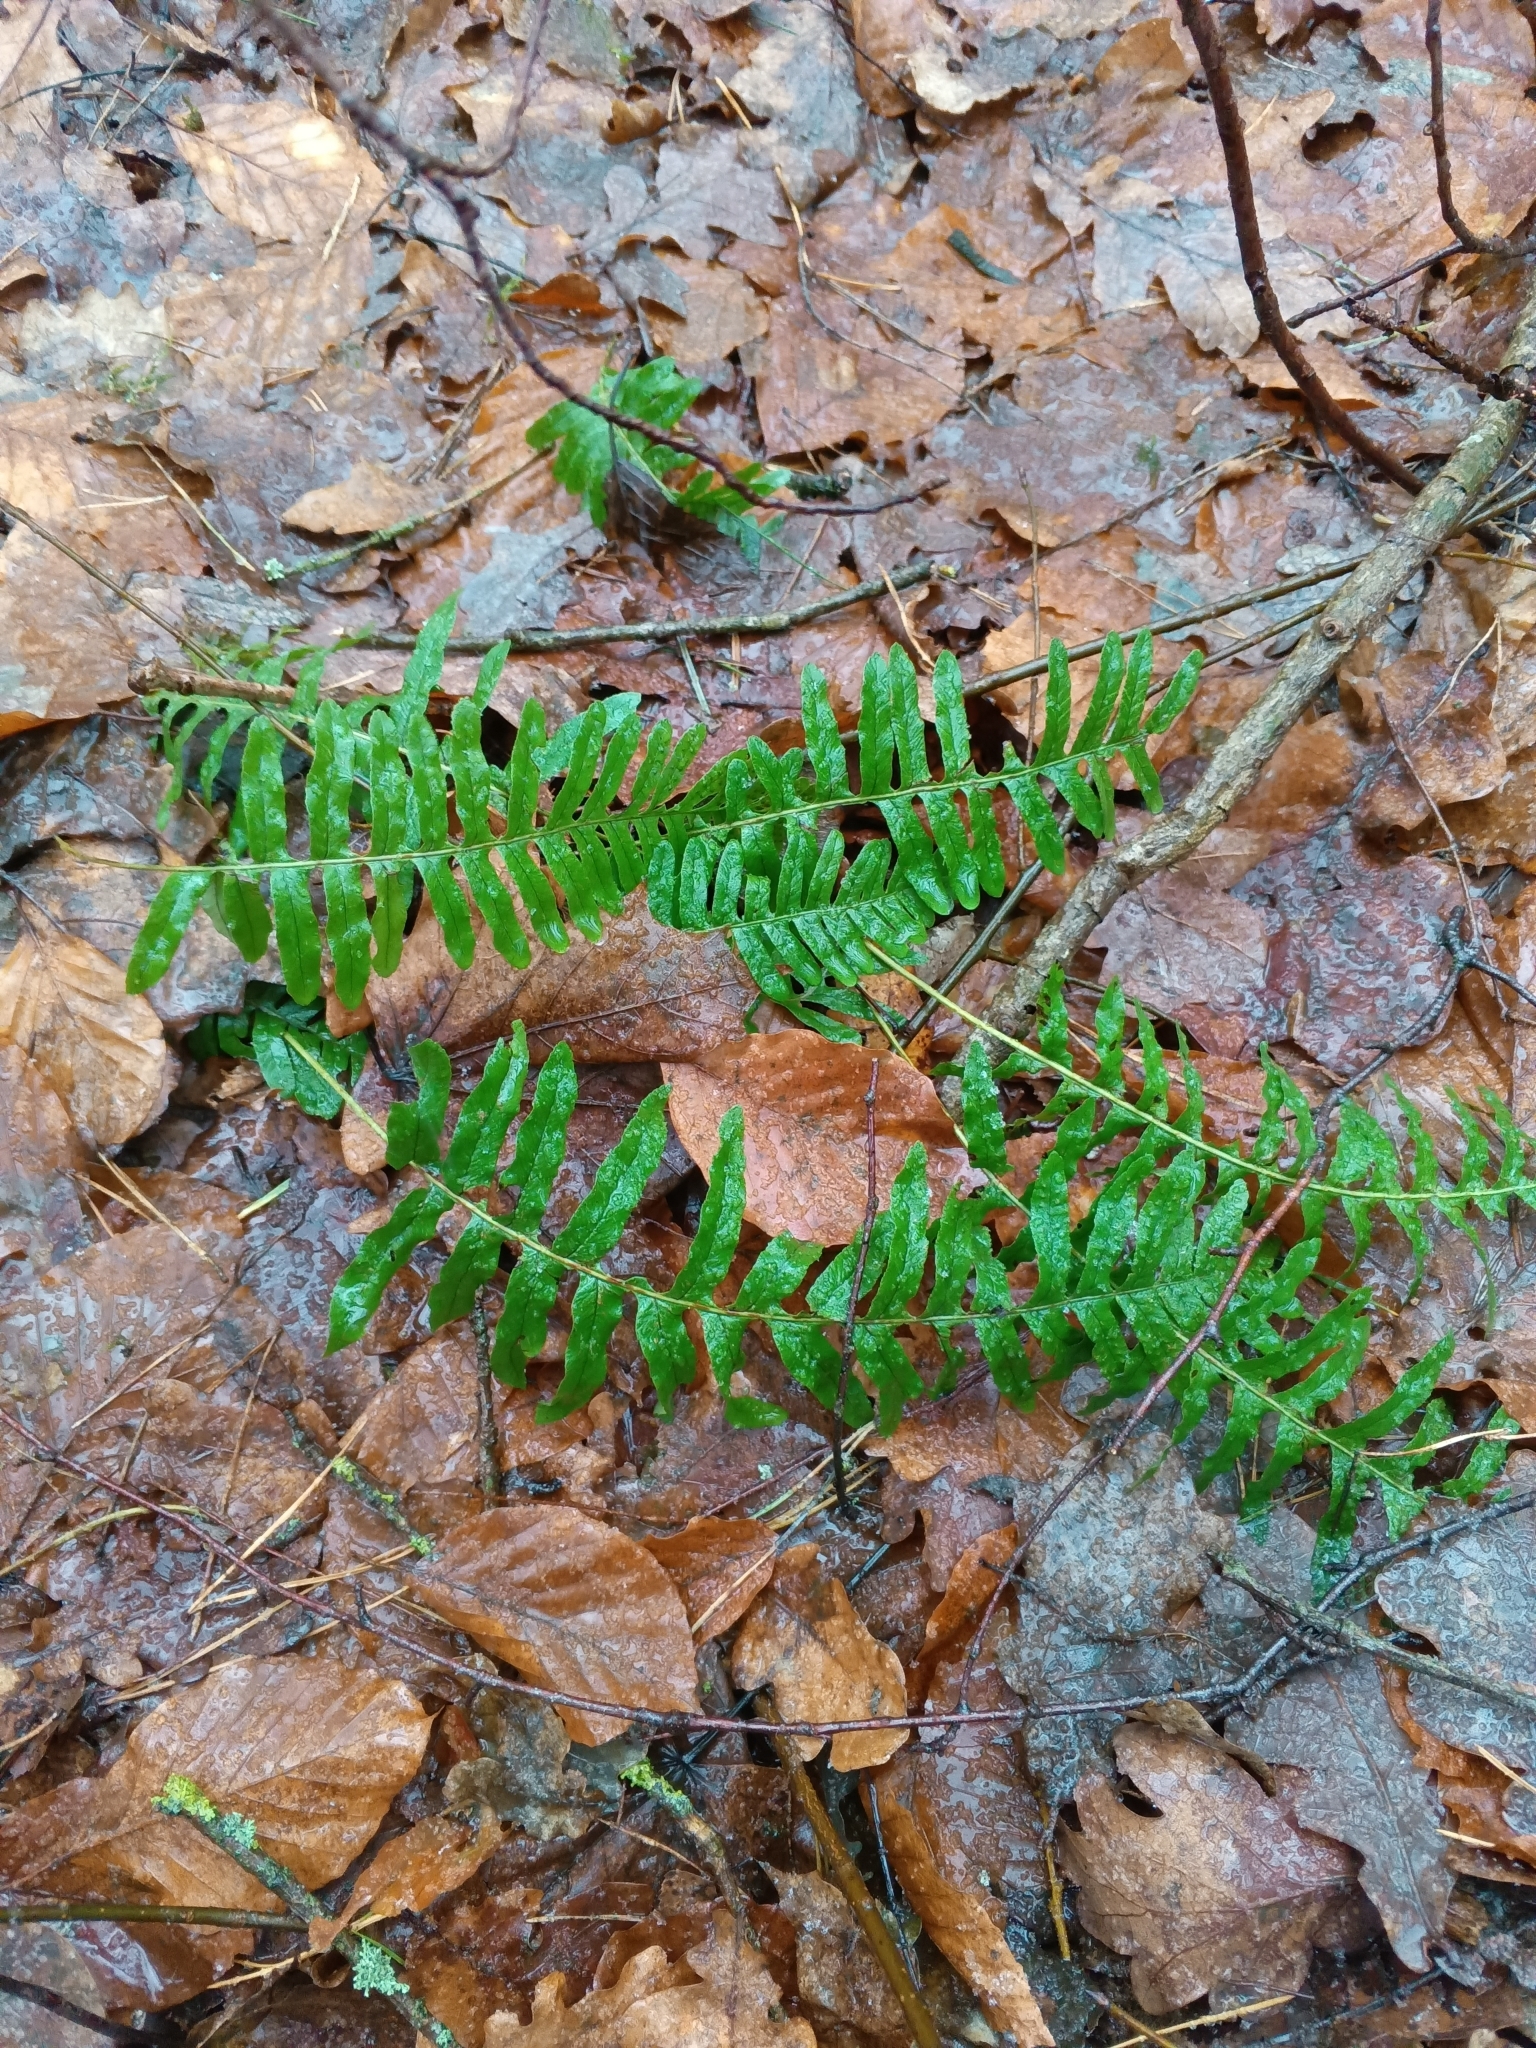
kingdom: Plantae
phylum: Tracheophyta
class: Polypodiopsida
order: Polypodiales
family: Polypodiaceae
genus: Polypodium
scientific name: Polypodium vulgare
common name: Common polypody
